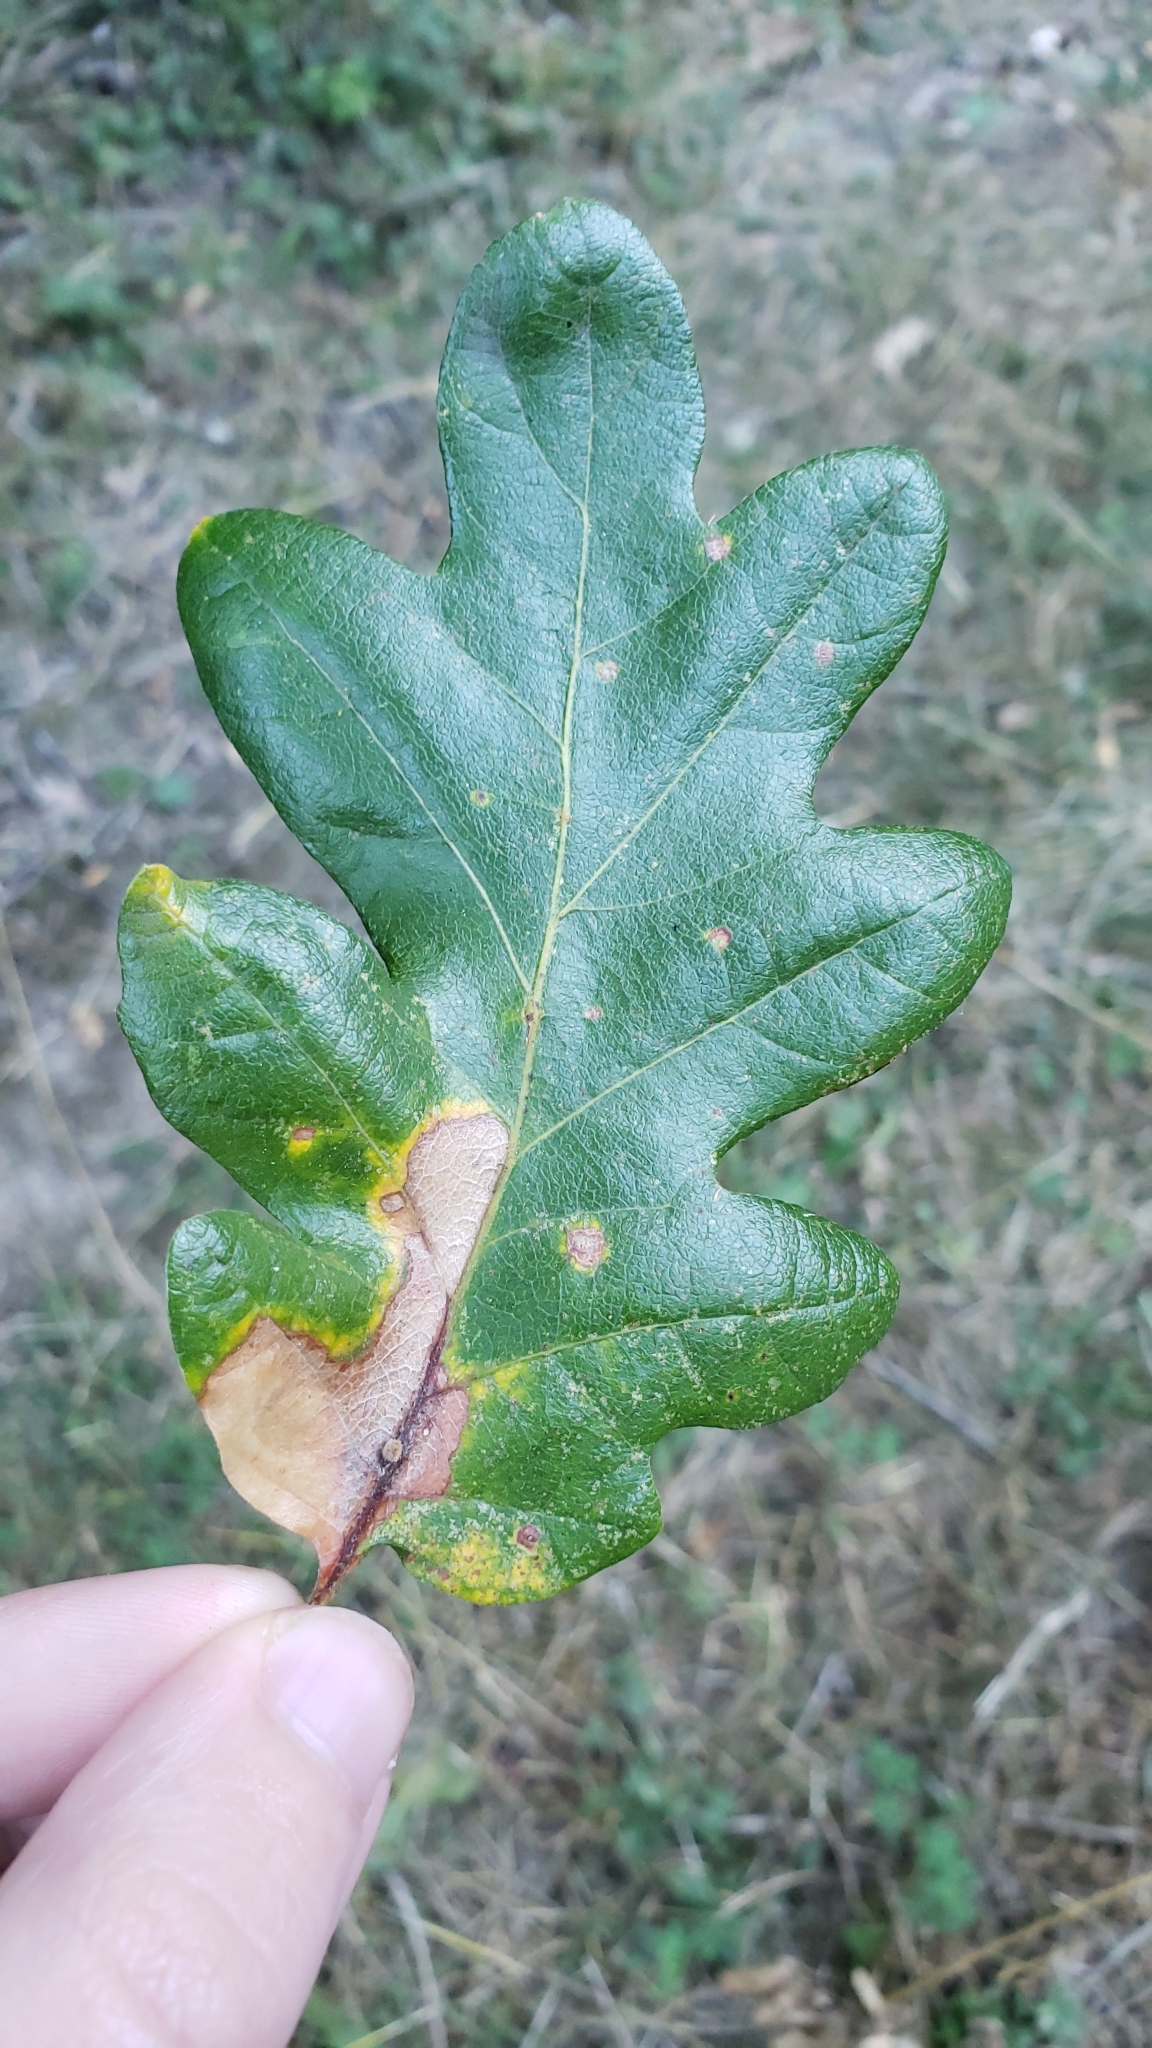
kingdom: Plantae
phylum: Tracheophyta
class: Magnoliopsida
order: Fagales
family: Fagaceae
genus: Quercus
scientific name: Quercus garryana
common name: Garry oak
